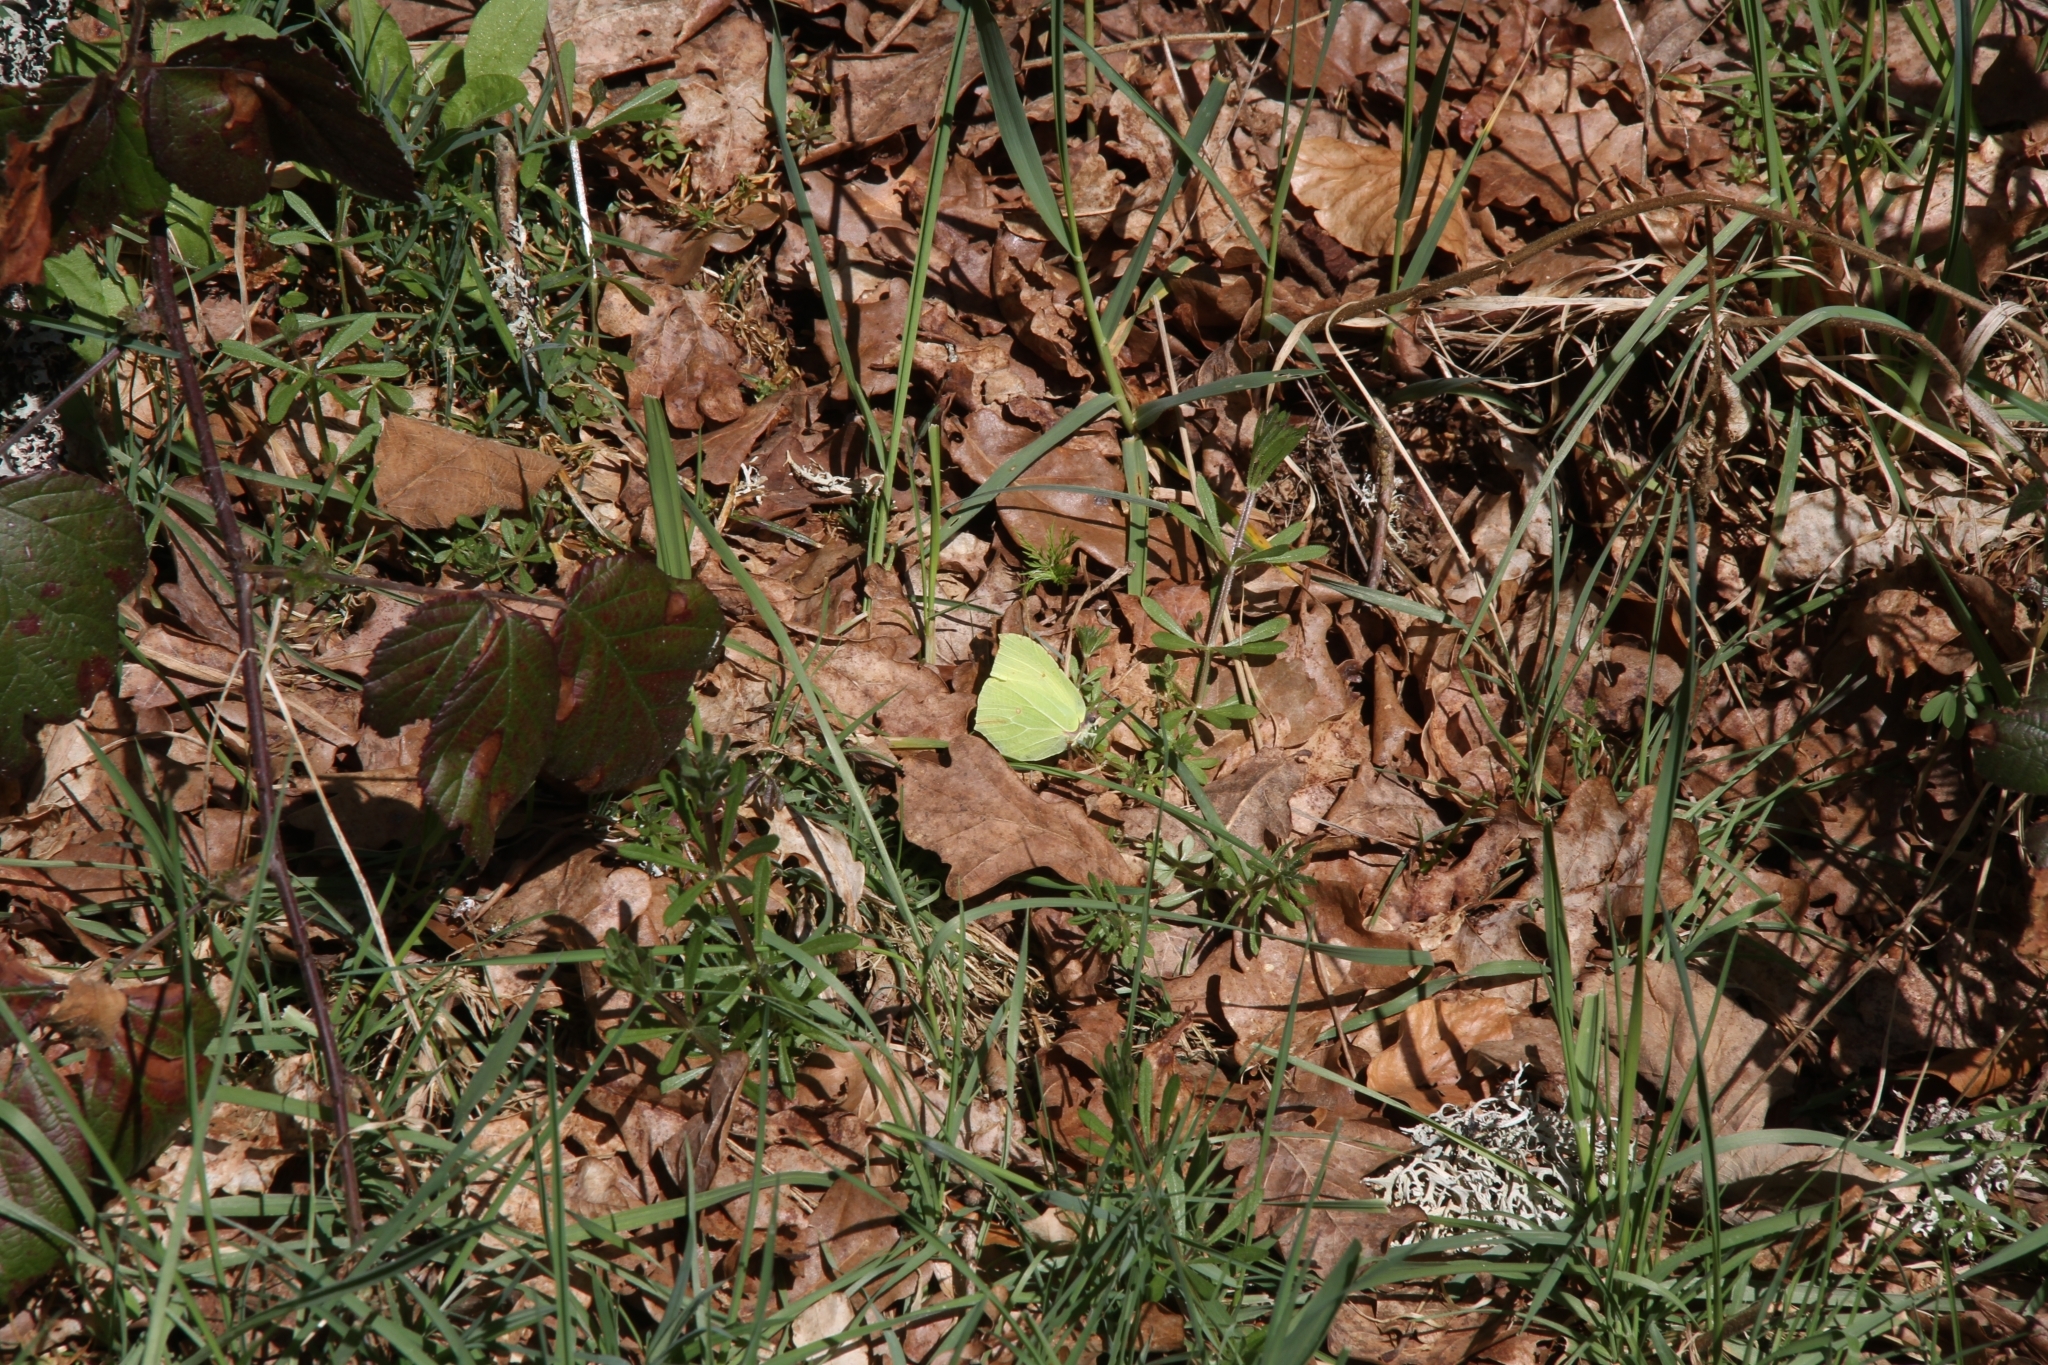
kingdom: Animalia
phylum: Arthropoda
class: Insecta
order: Lepidoptera
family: Pieridae
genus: Gonepteryx
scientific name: Gonepteryx rhamni
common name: Brimstone
